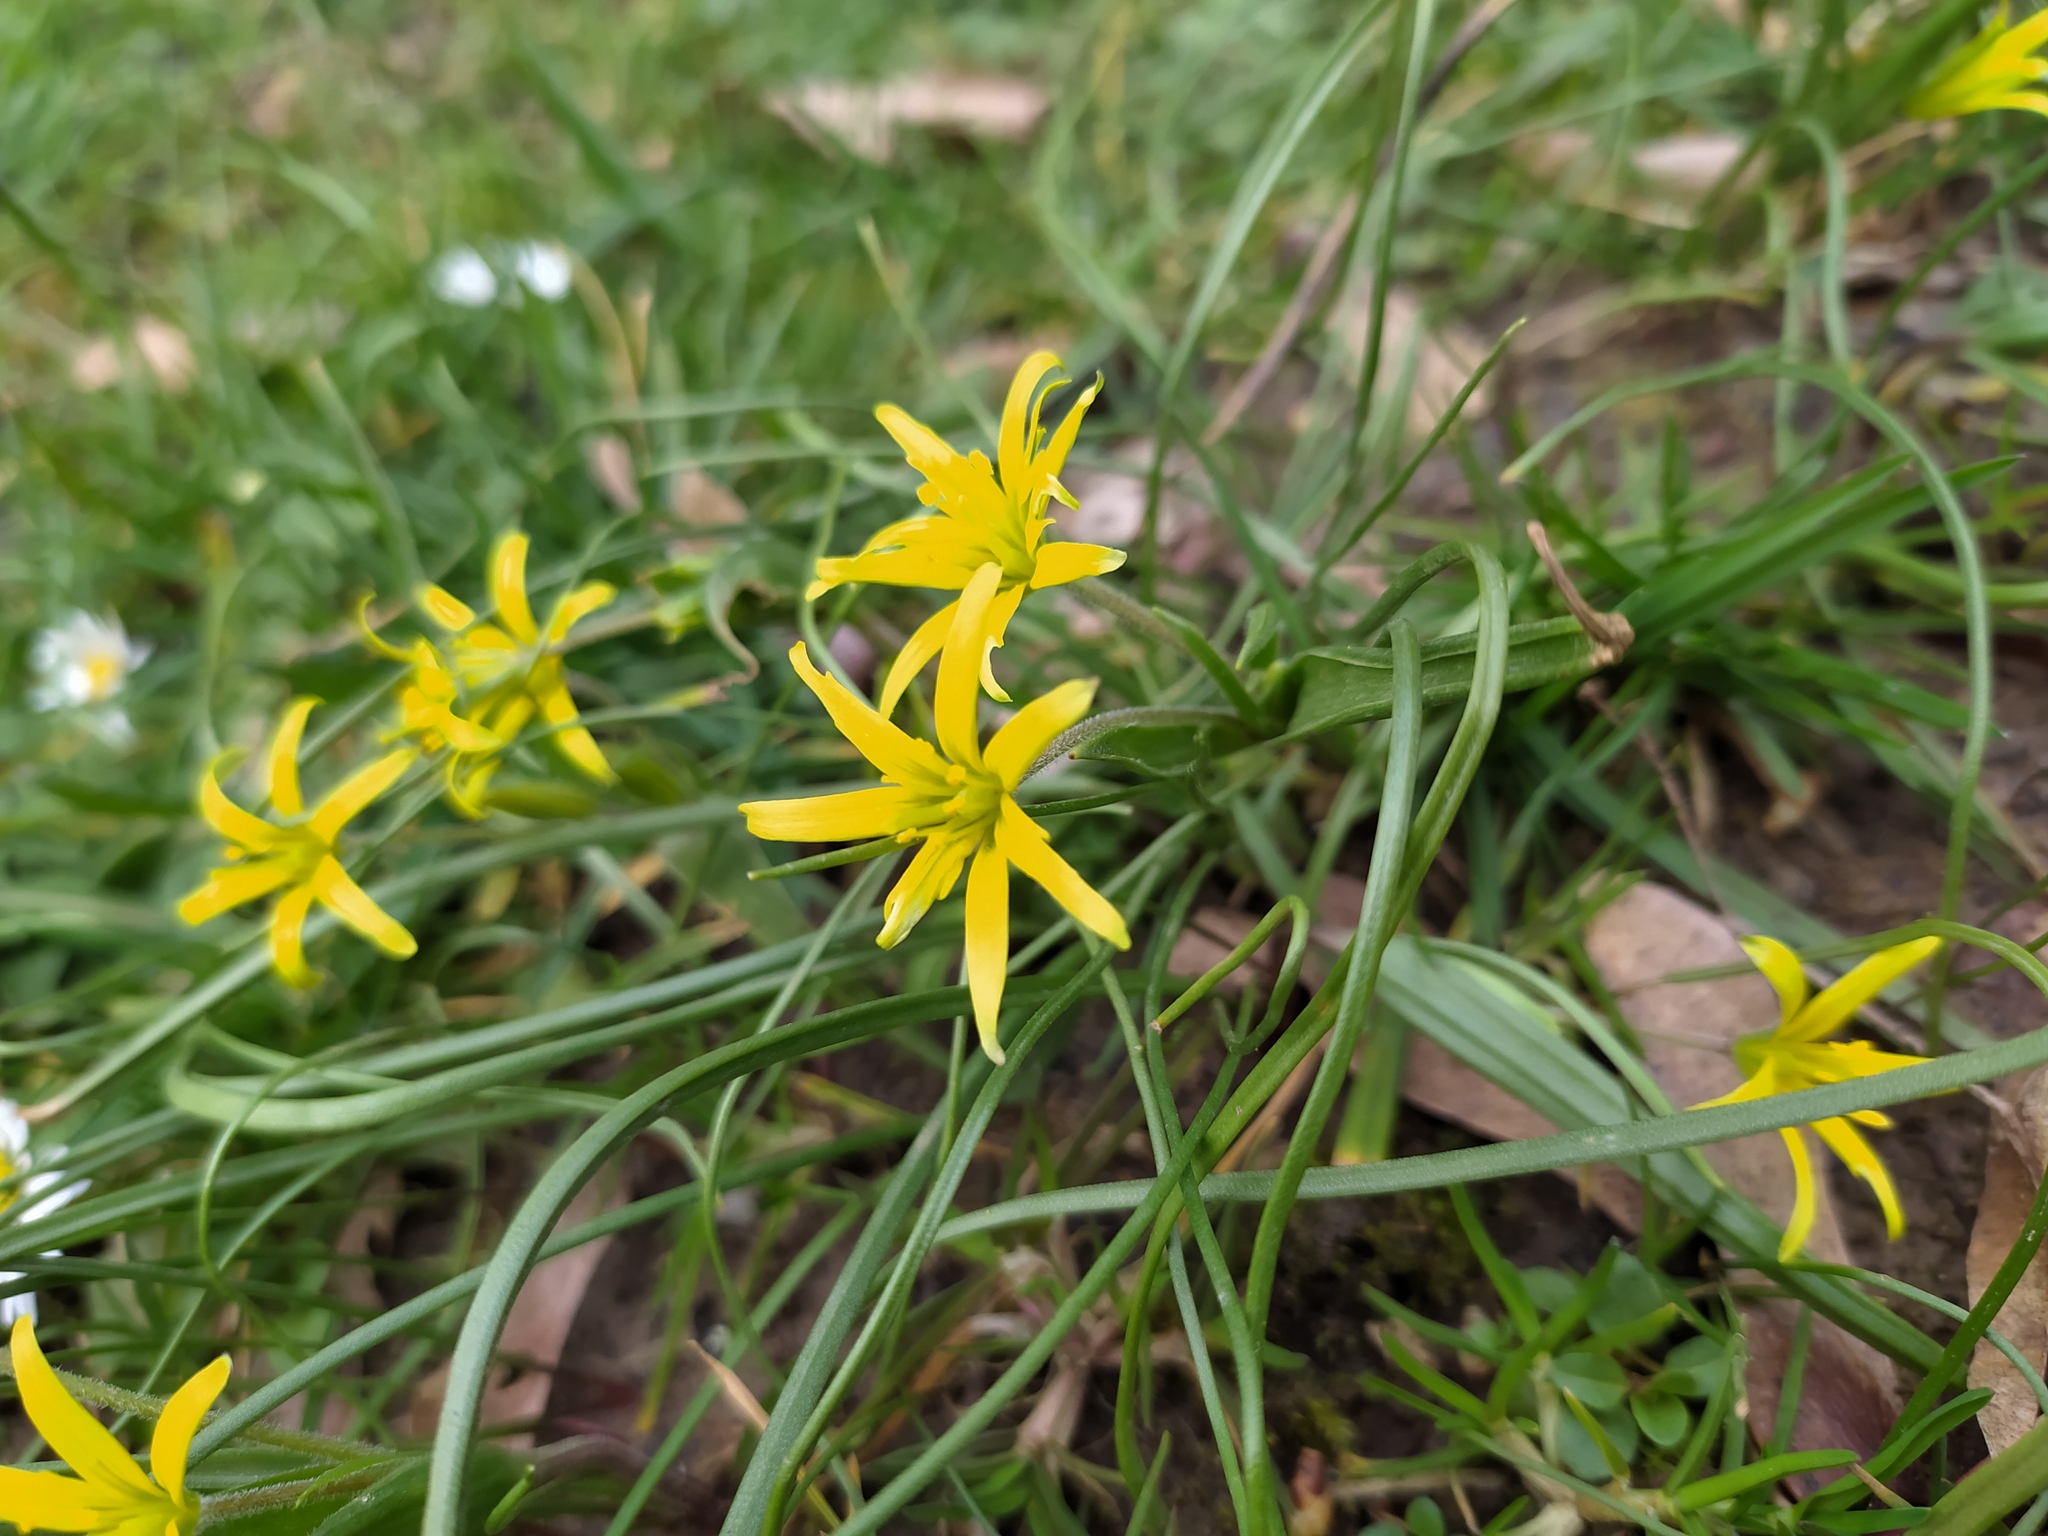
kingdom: Plantae
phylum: Tracheophyta
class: Liliopsida
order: Liliales
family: Liliaceae
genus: Gagea
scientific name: Gagea villosa
